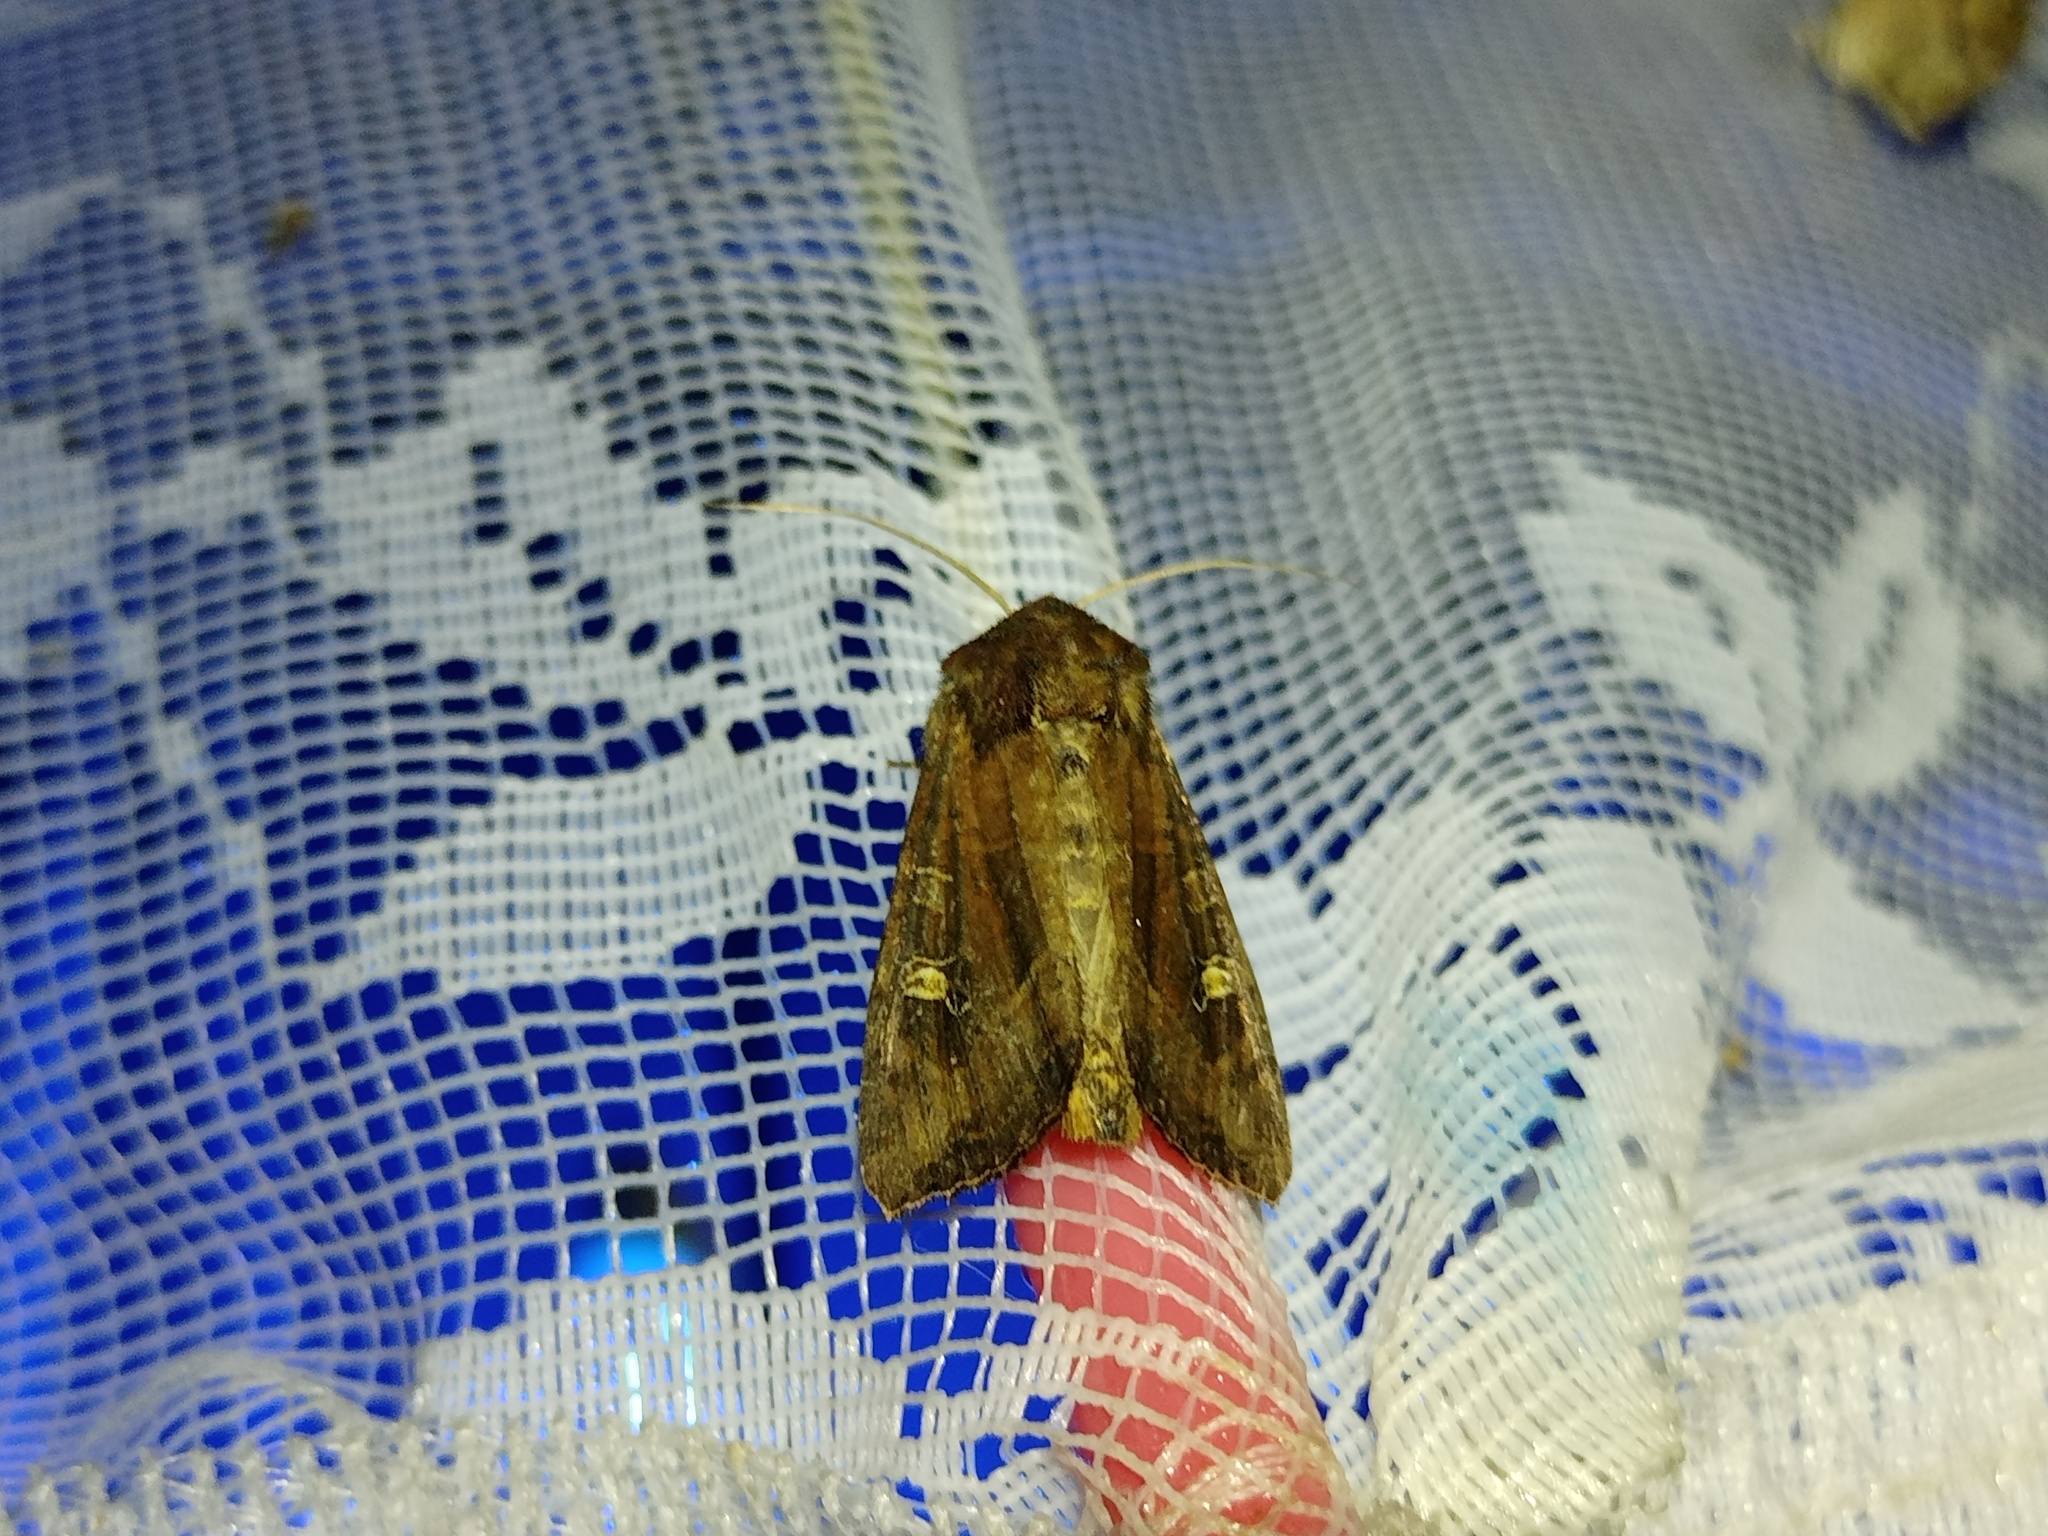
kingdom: Animalia
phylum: Arthropoda
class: Insecta
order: Lepidoptera
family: Noctuidae
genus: Helotropha
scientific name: Helotropha leucostigma
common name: The crescent
